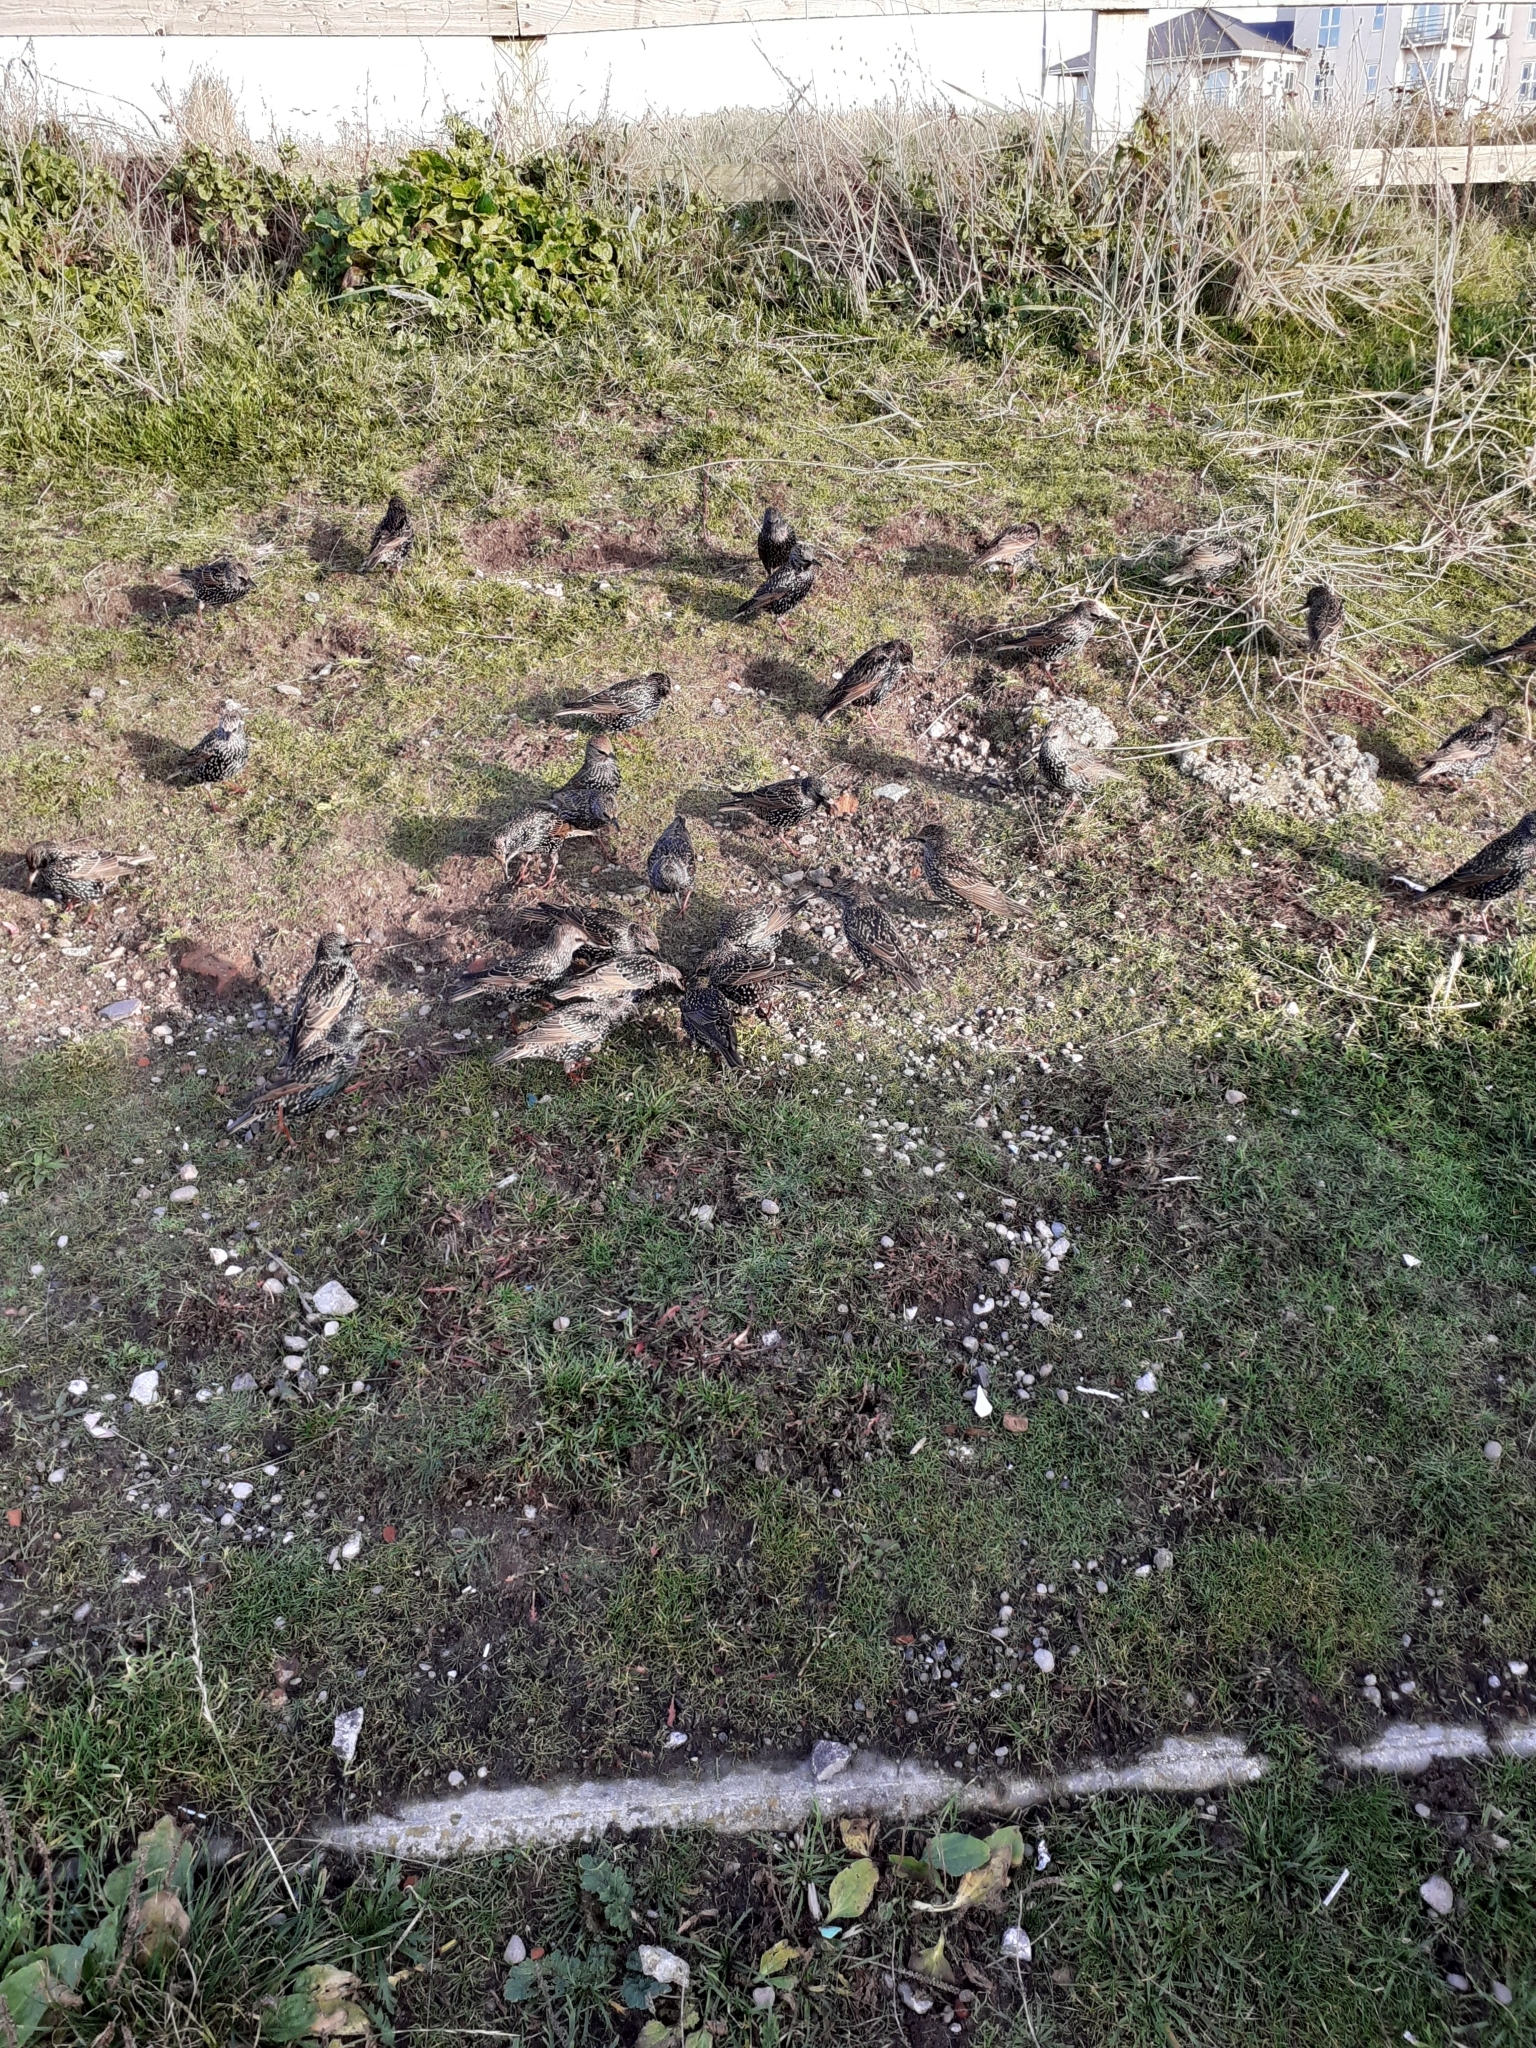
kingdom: Animalia
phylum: Chordata
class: Aves
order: Passeriformes
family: Sturnidae
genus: Sturnus
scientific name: Sturnus vulgaris
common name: Common starling
